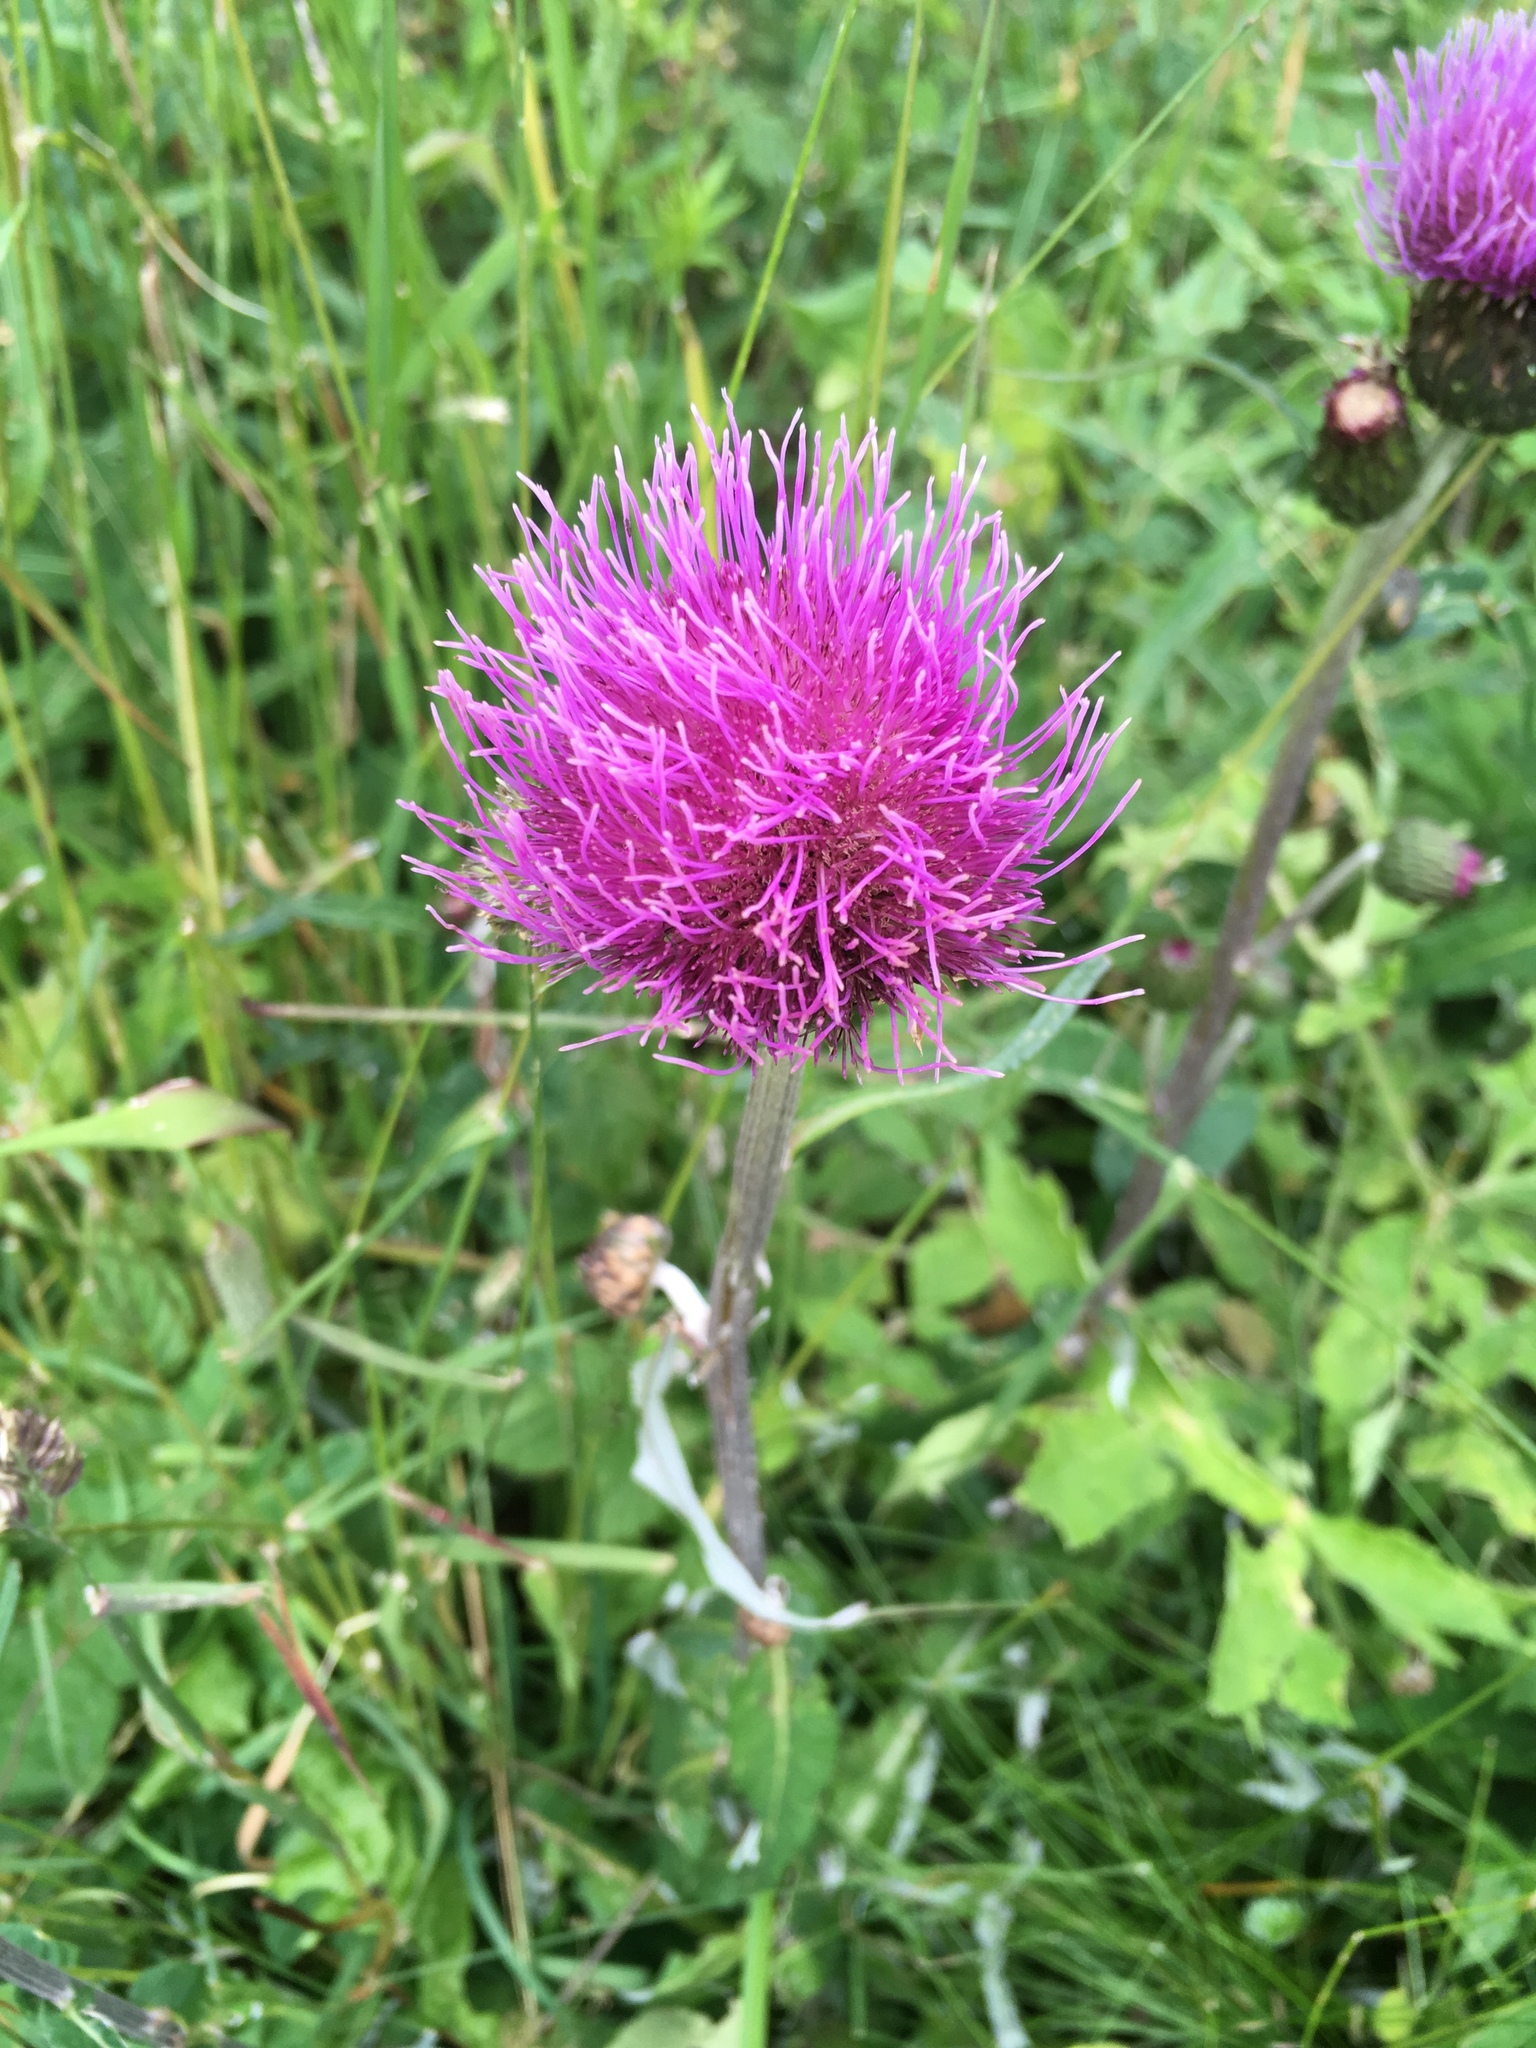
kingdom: Plantae
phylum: Tracheophyta
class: Magnoliopsida
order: Asterales
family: Asteraceae
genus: Cirsium
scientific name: Cirsium heterophyllum
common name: Melancholy thistle
